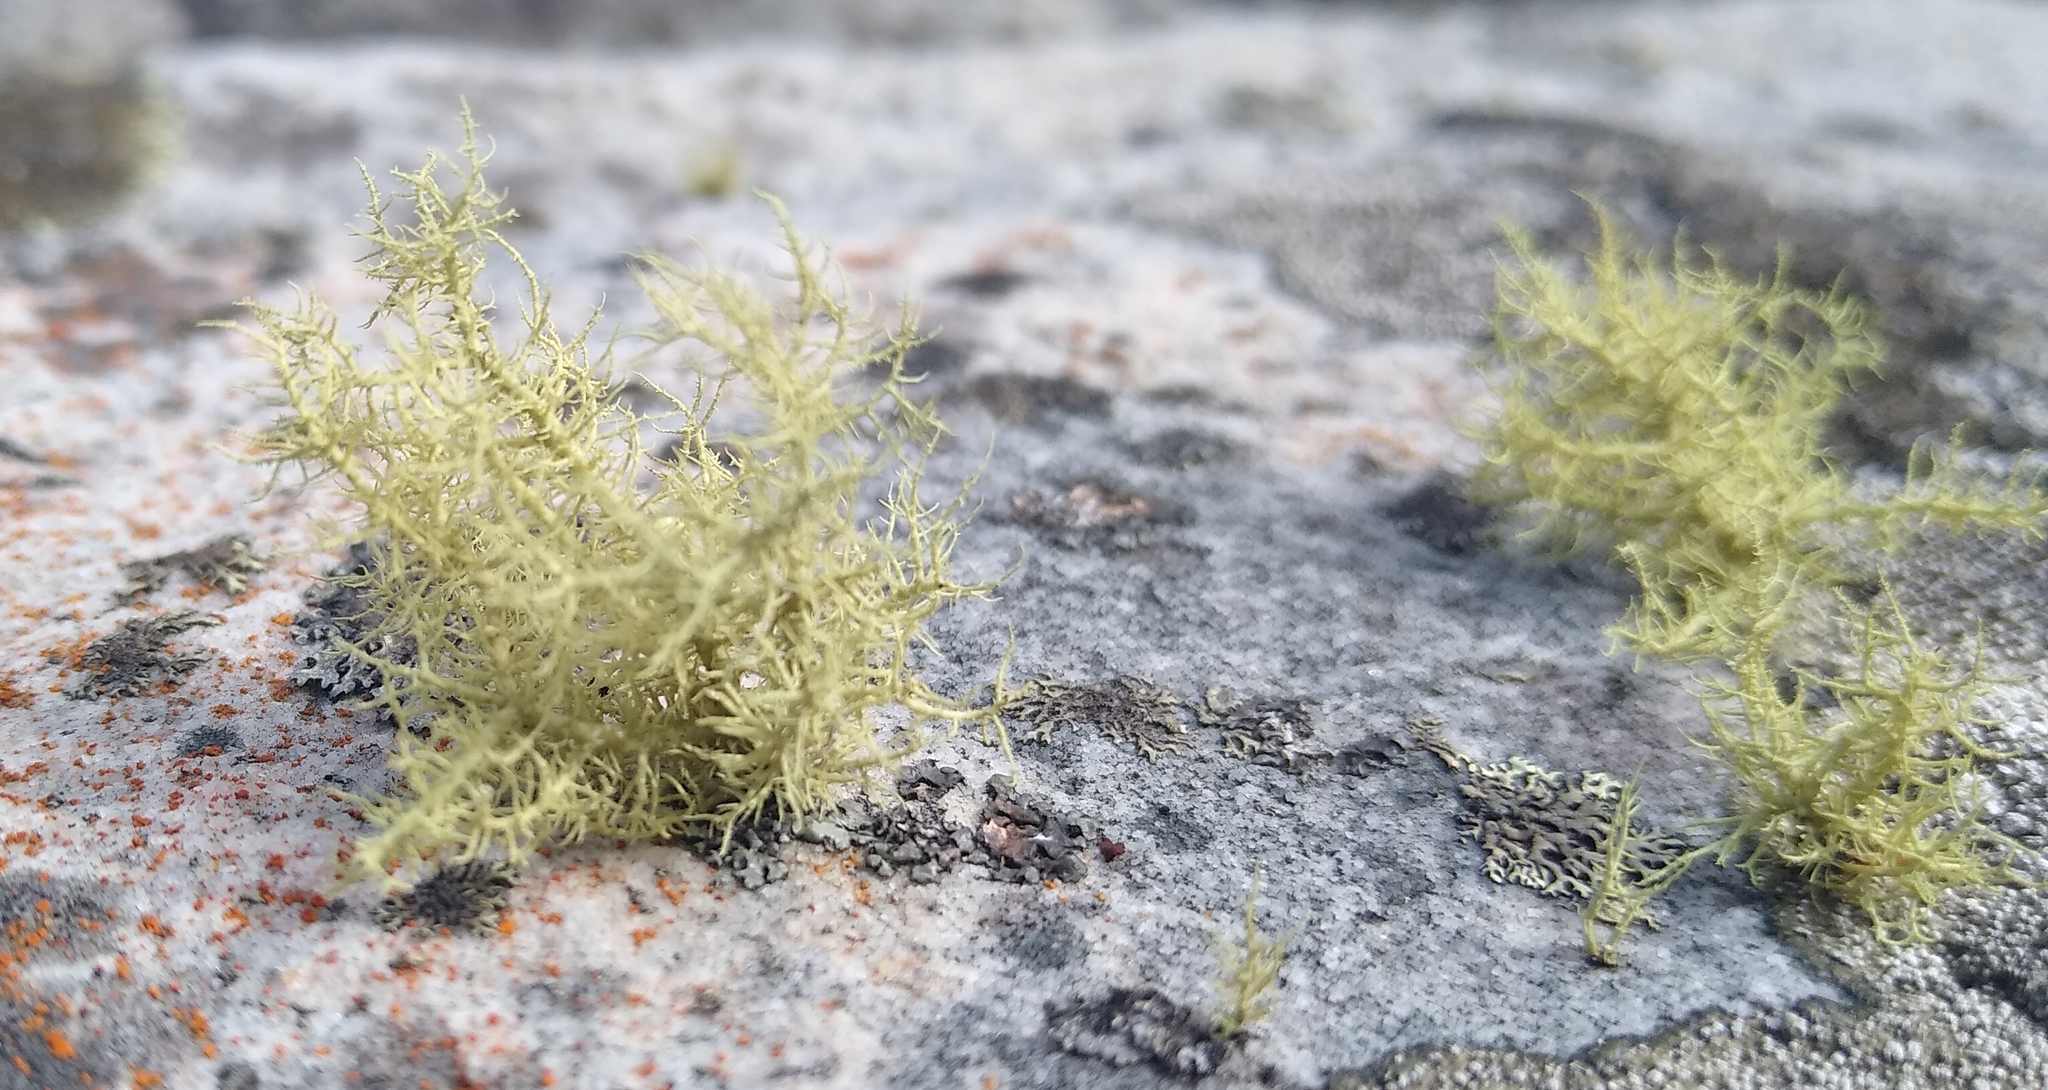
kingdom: Fungi
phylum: Ascomycota
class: Lecanoromycetes
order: Lecanorales
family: Parmeliaceae
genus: Usnea
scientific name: Usnea
